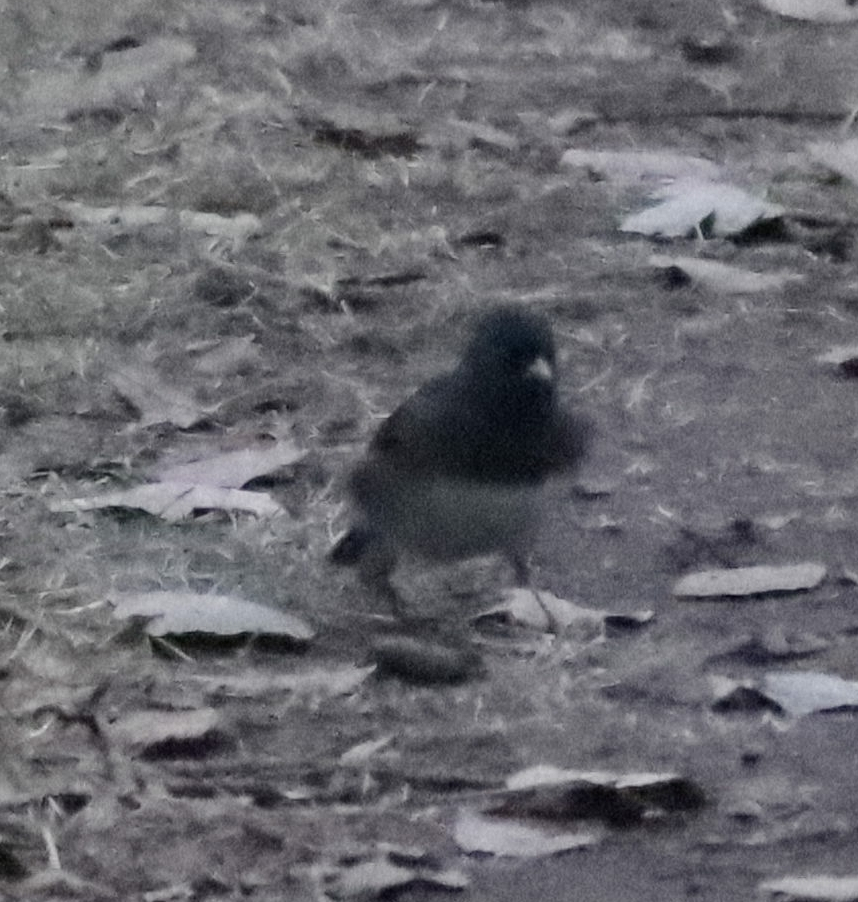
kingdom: Animalia
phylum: Chordata
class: Aves
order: Passeriformes
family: Passerellidae
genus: Junco
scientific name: Junco hyemalis
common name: Dark-eyed junco
